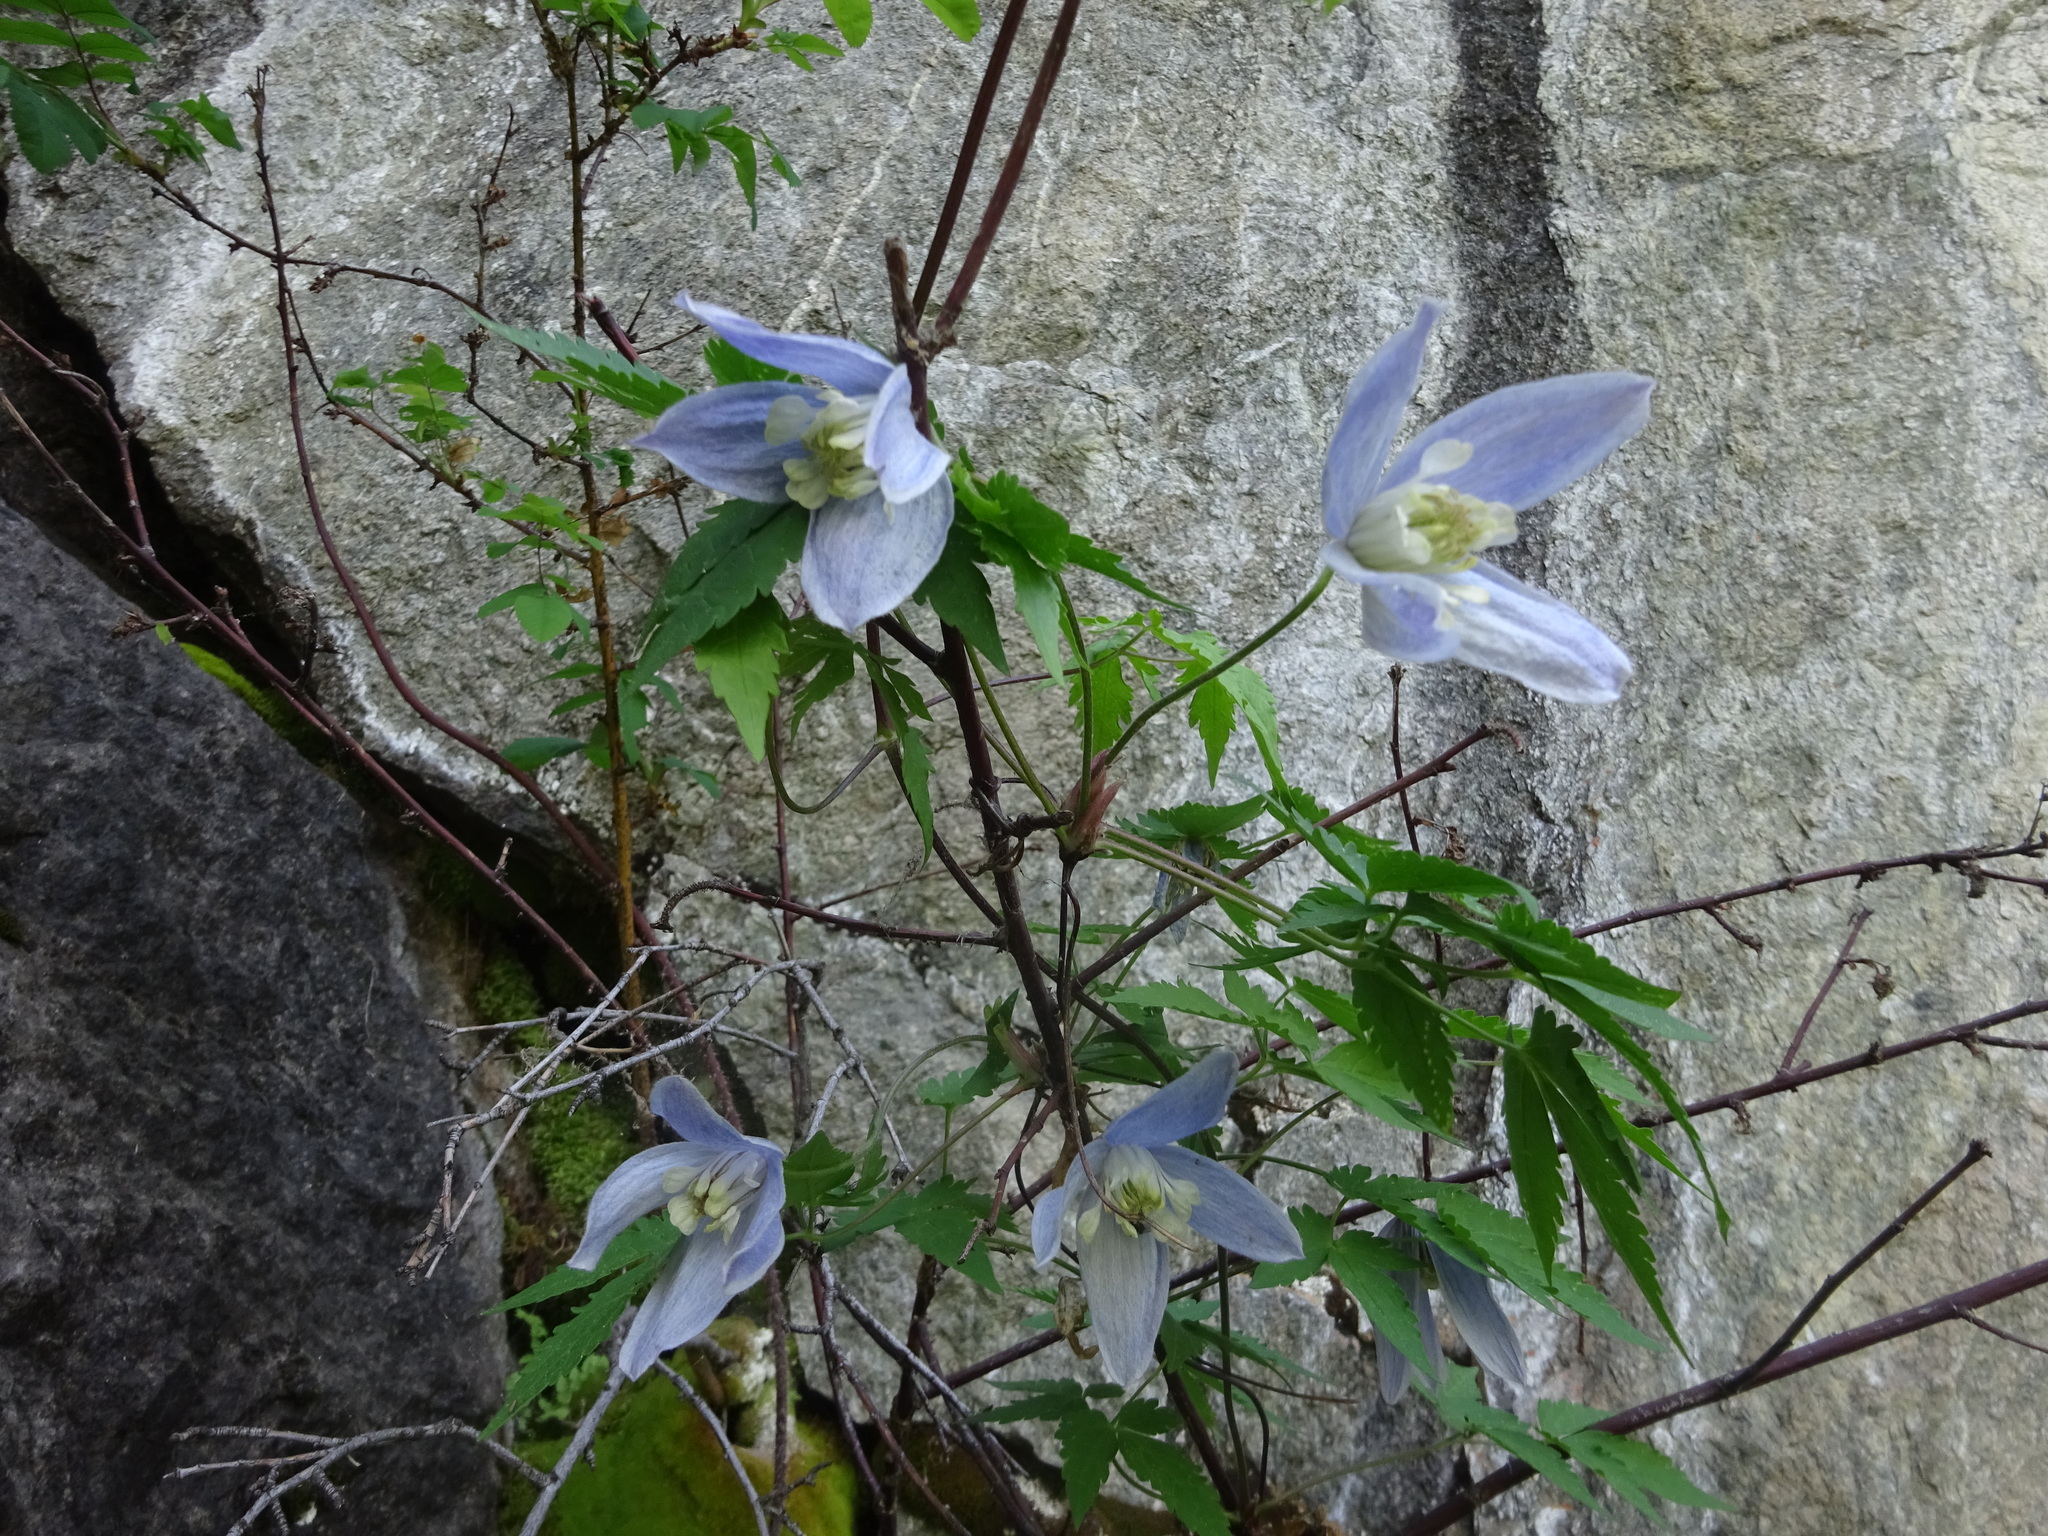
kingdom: Plantae
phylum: Tracheophyta
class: Magnoliopsida
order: Ranunculales
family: Ranunculaceae
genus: Clematis
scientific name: Clematis alpina
